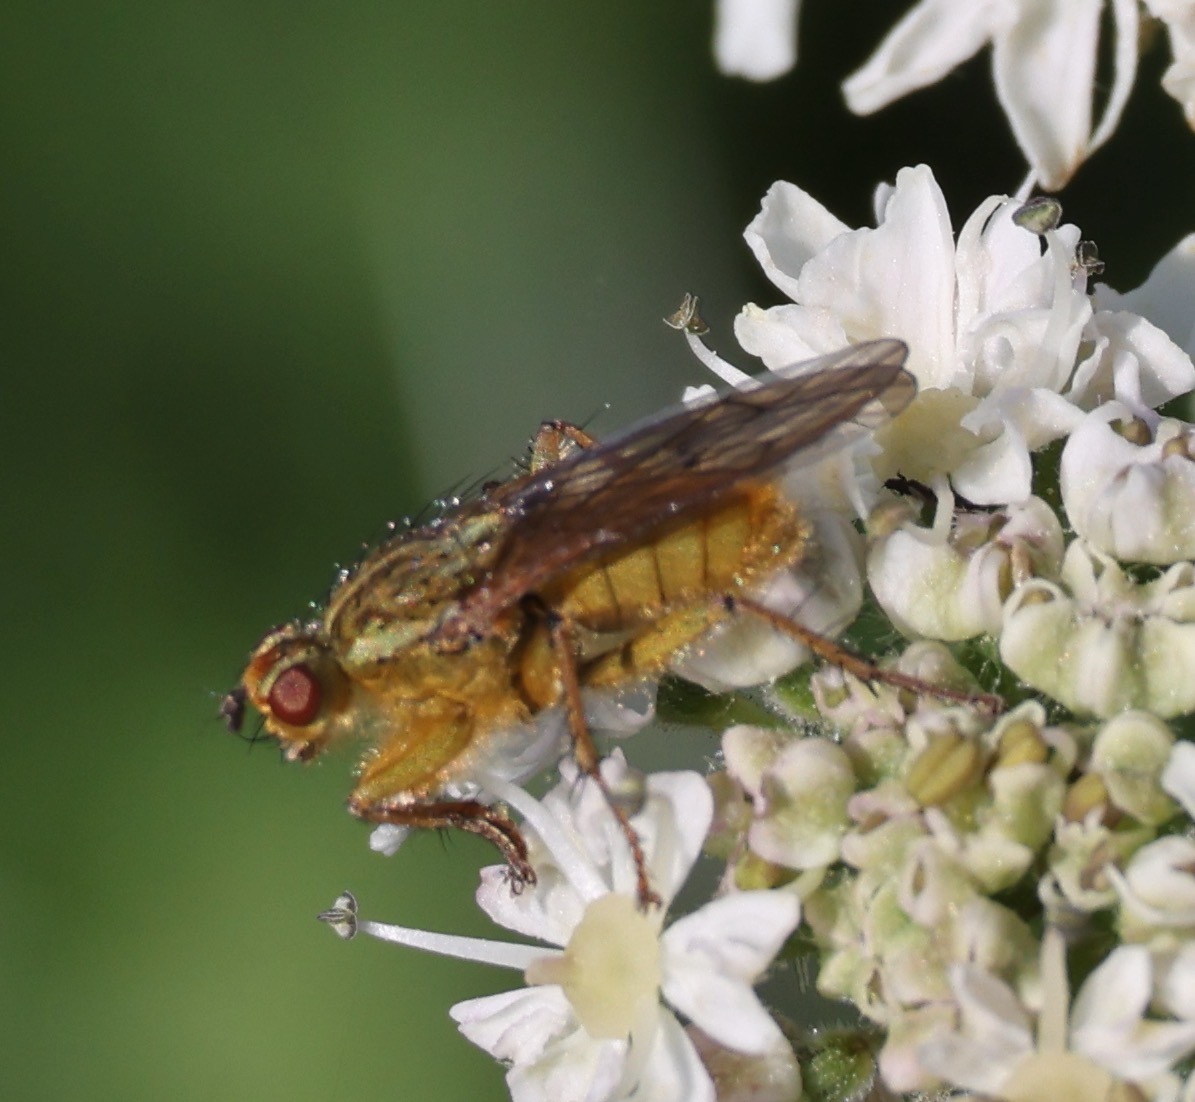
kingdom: Animalia
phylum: Arthropoda
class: Insecta
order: Diptera
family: Scathophagidae
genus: Scathophaga
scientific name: Scathophaga stercoraria
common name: Yellow dung fly
